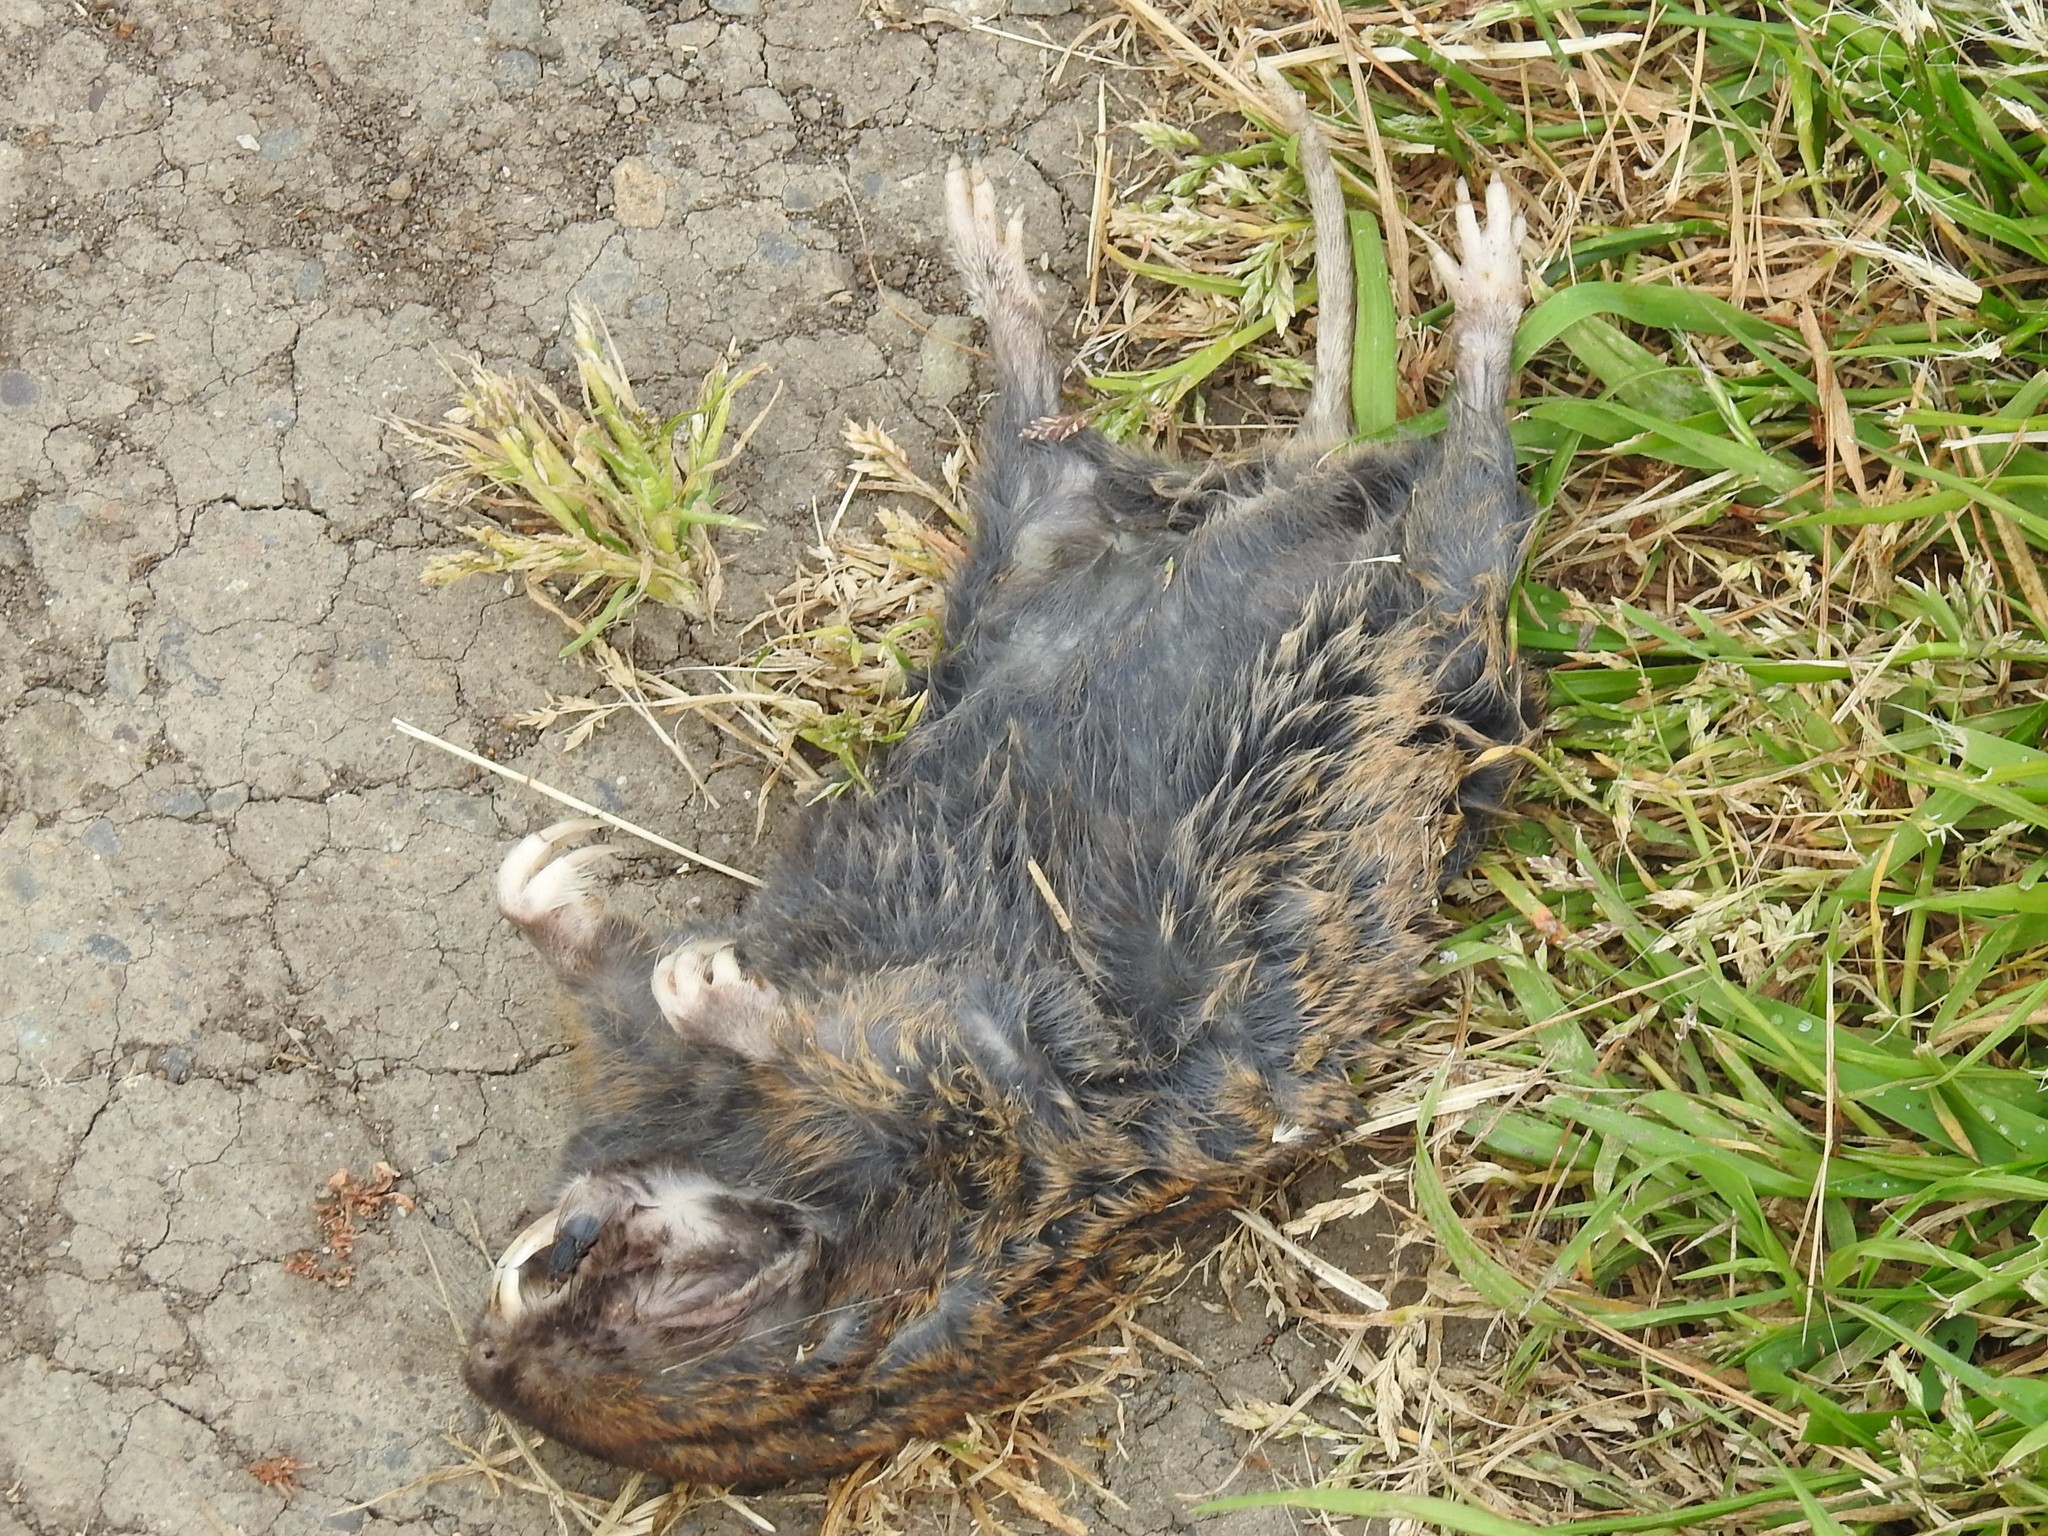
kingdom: Animalia
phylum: Chordata
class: Mammalia
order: Rodentia
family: Geomyidae
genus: Thomomys
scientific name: Thomomys bottae
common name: Botta's pocket gopher
